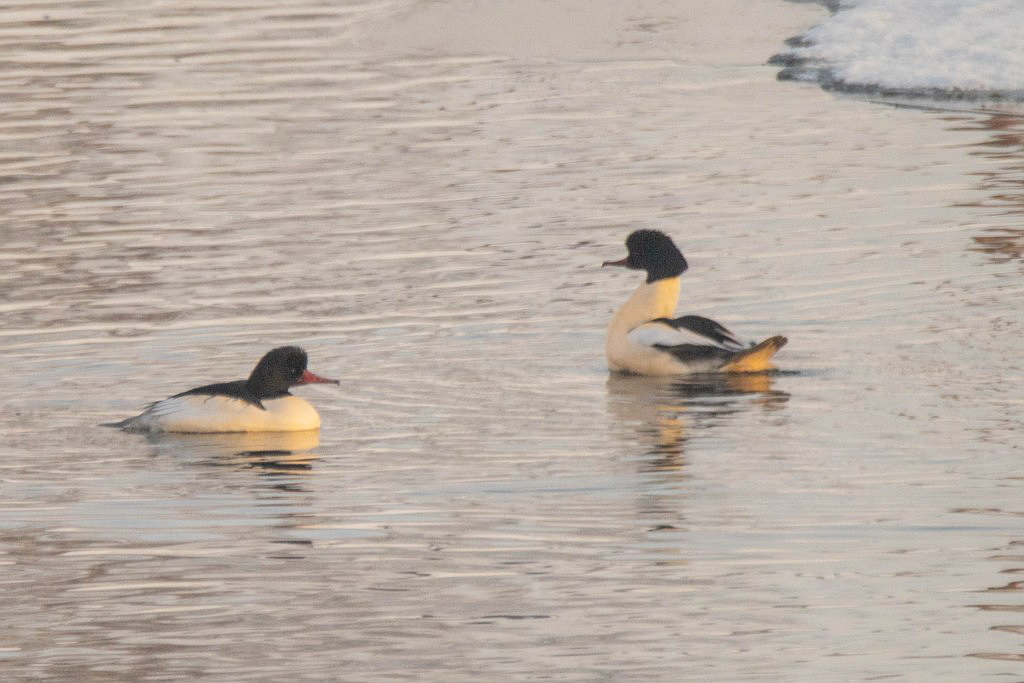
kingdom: Animalia
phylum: Chordata
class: Aves
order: Anseriformes
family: Anatidae
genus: Mergus
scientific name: Mergus merganser
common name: Common merganser
